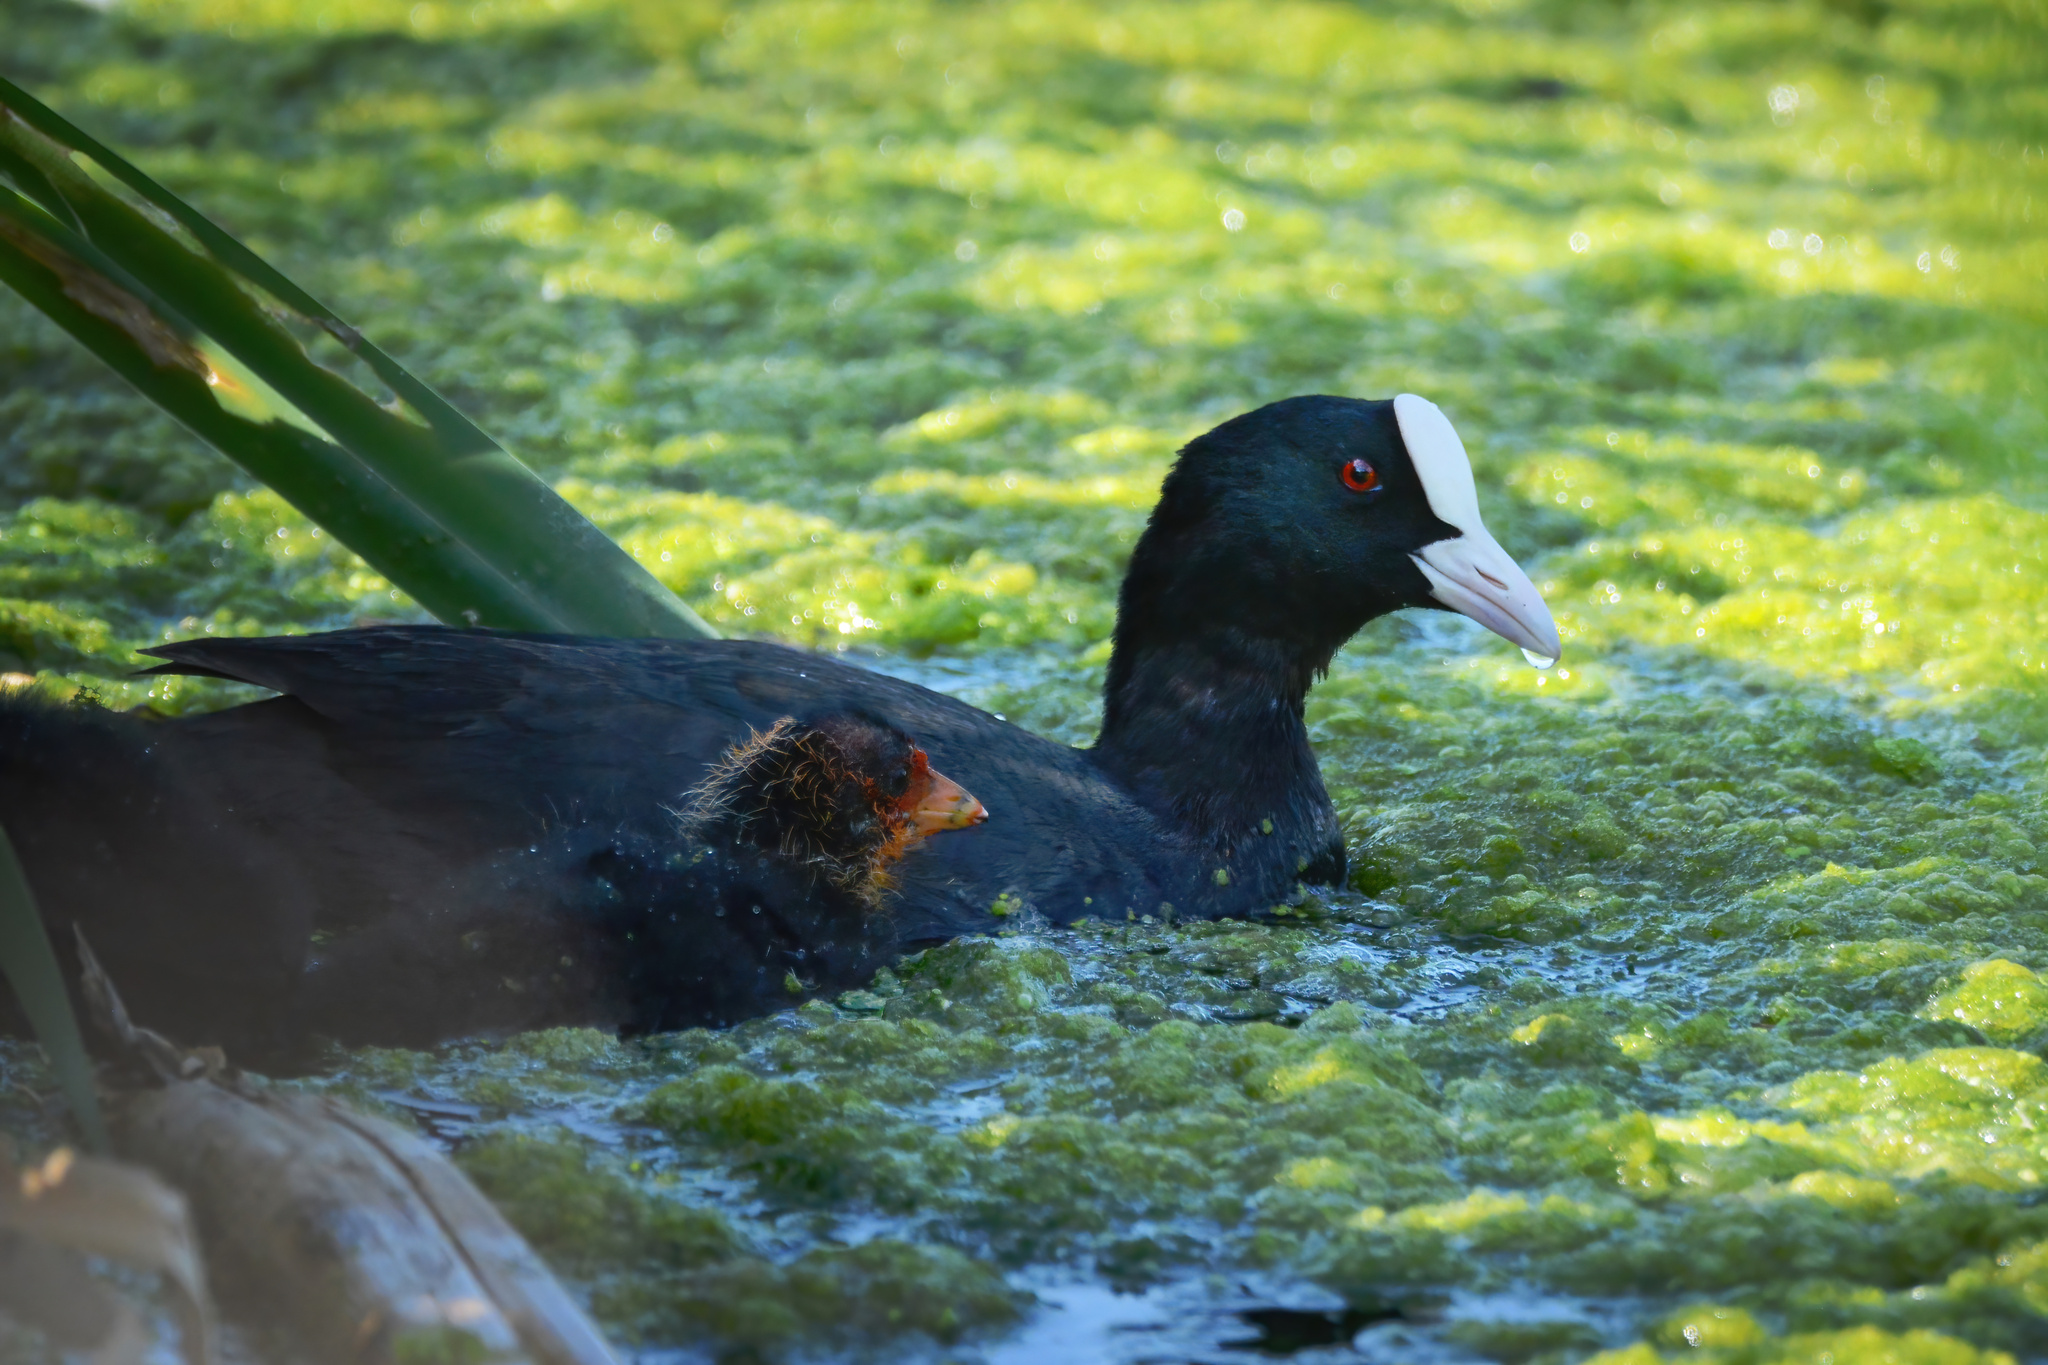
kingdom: Animalia
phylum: Chordata
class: Aves
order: Gruiformes
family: Rallidae
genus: Fulica
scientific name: Fulica atra
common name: Eurasian coot
